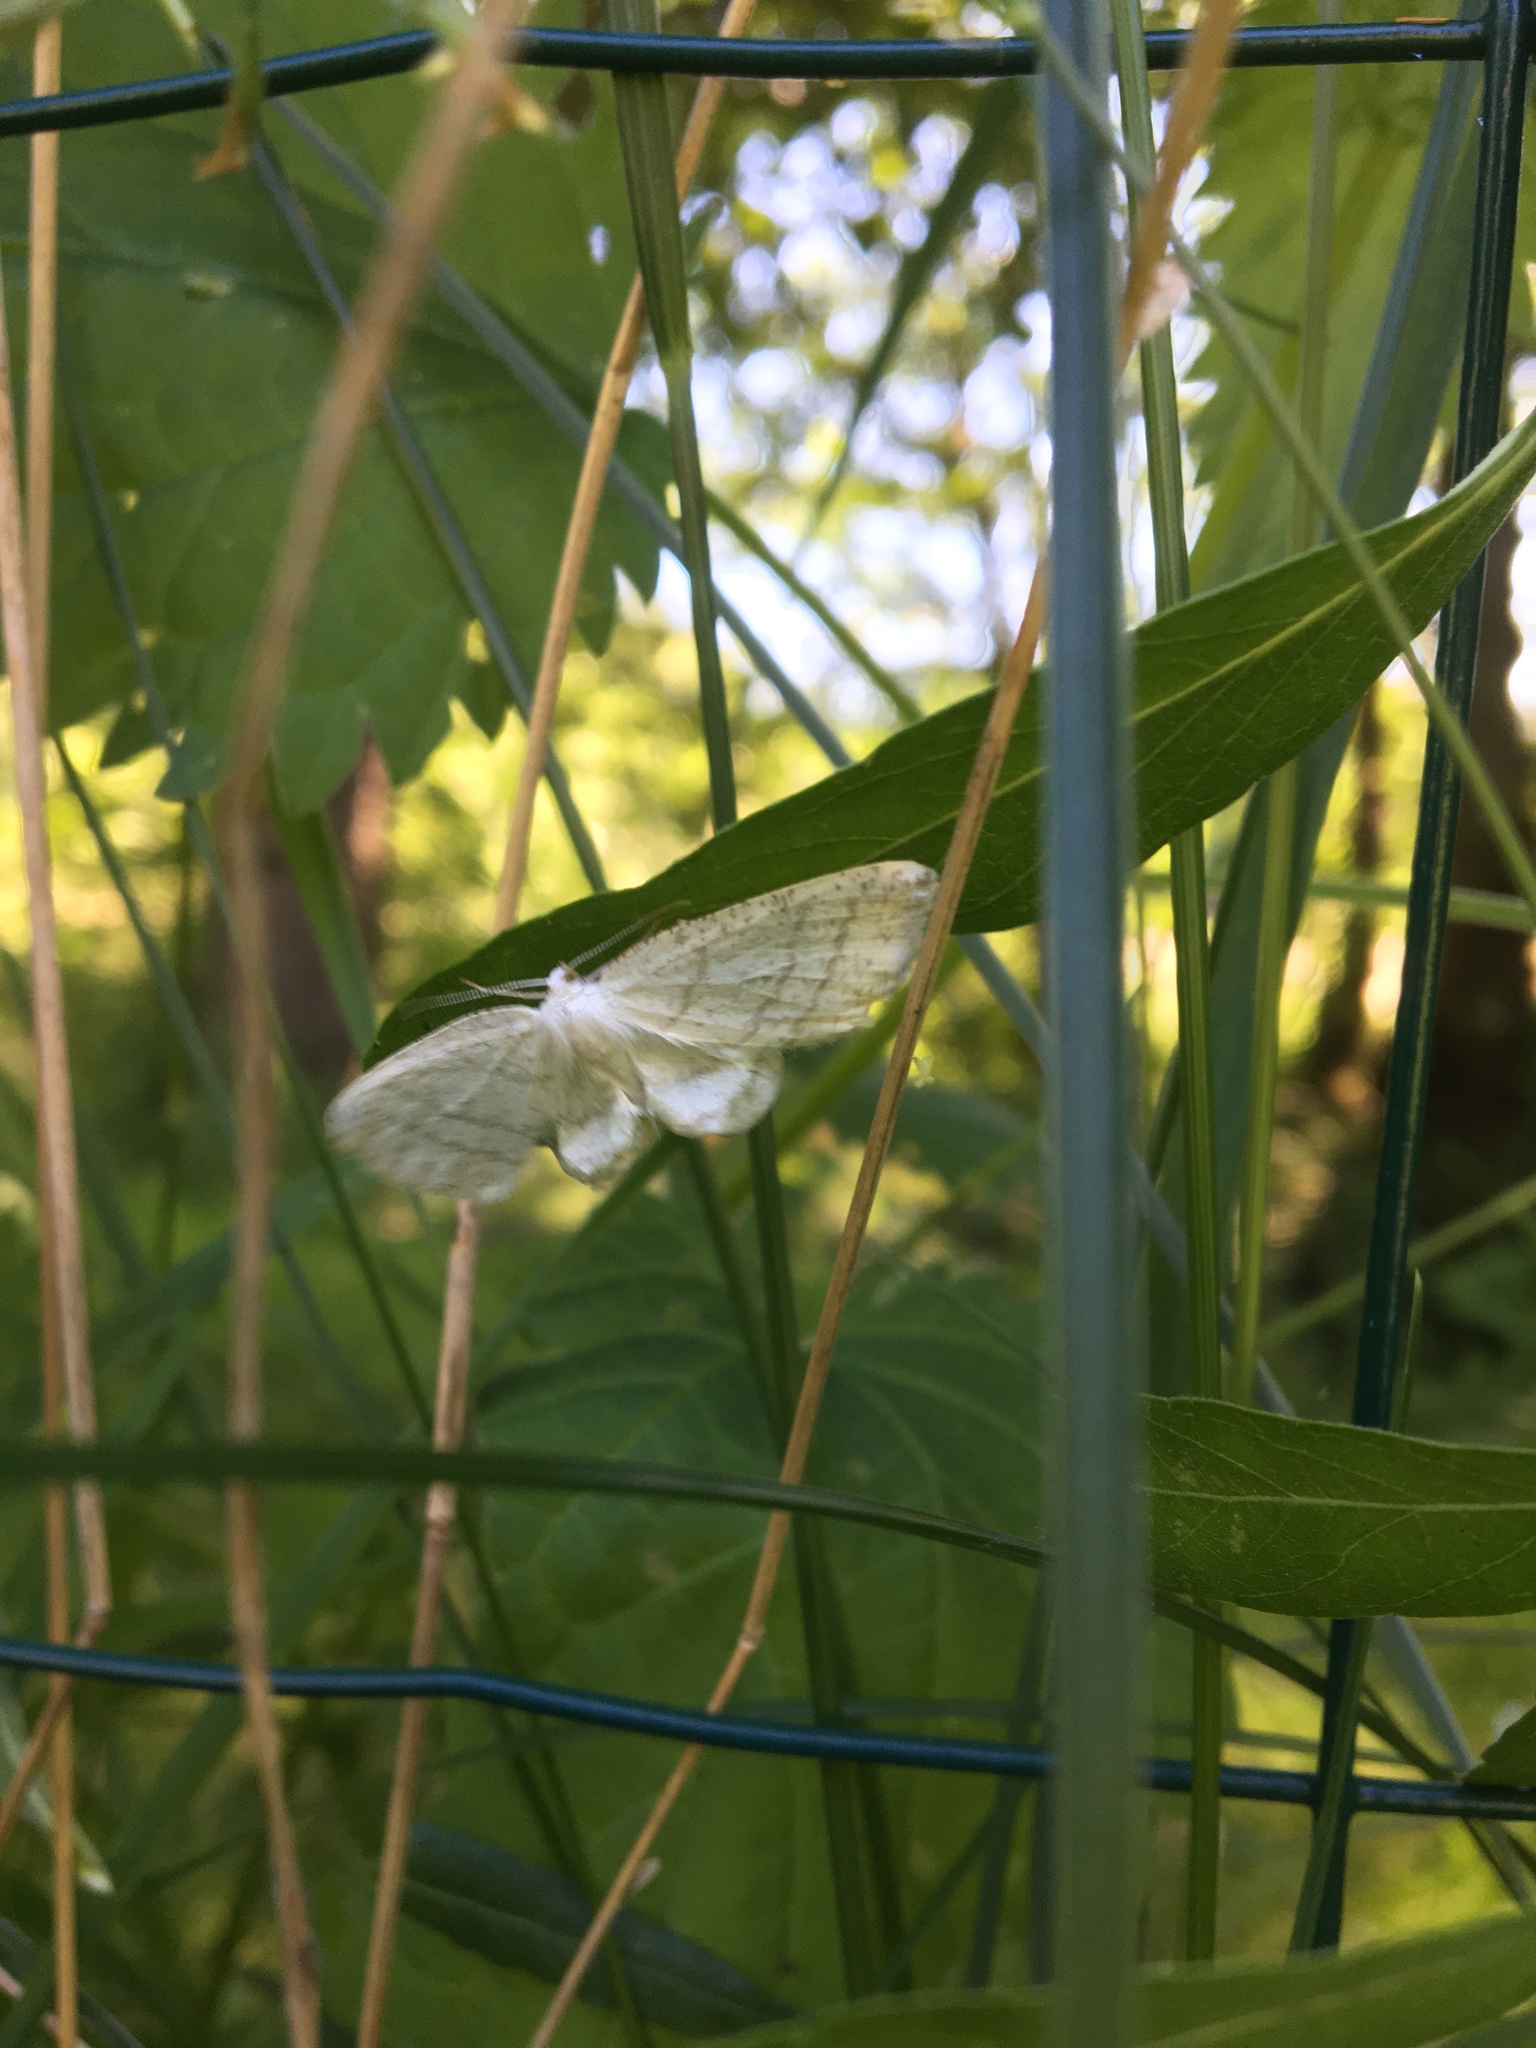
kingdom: Animalia
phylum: Arthropoda
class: Insecta
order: Lepidoptera
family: Geometridae
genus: Cabera
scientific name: Cabera pusaria
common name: Common white wave
